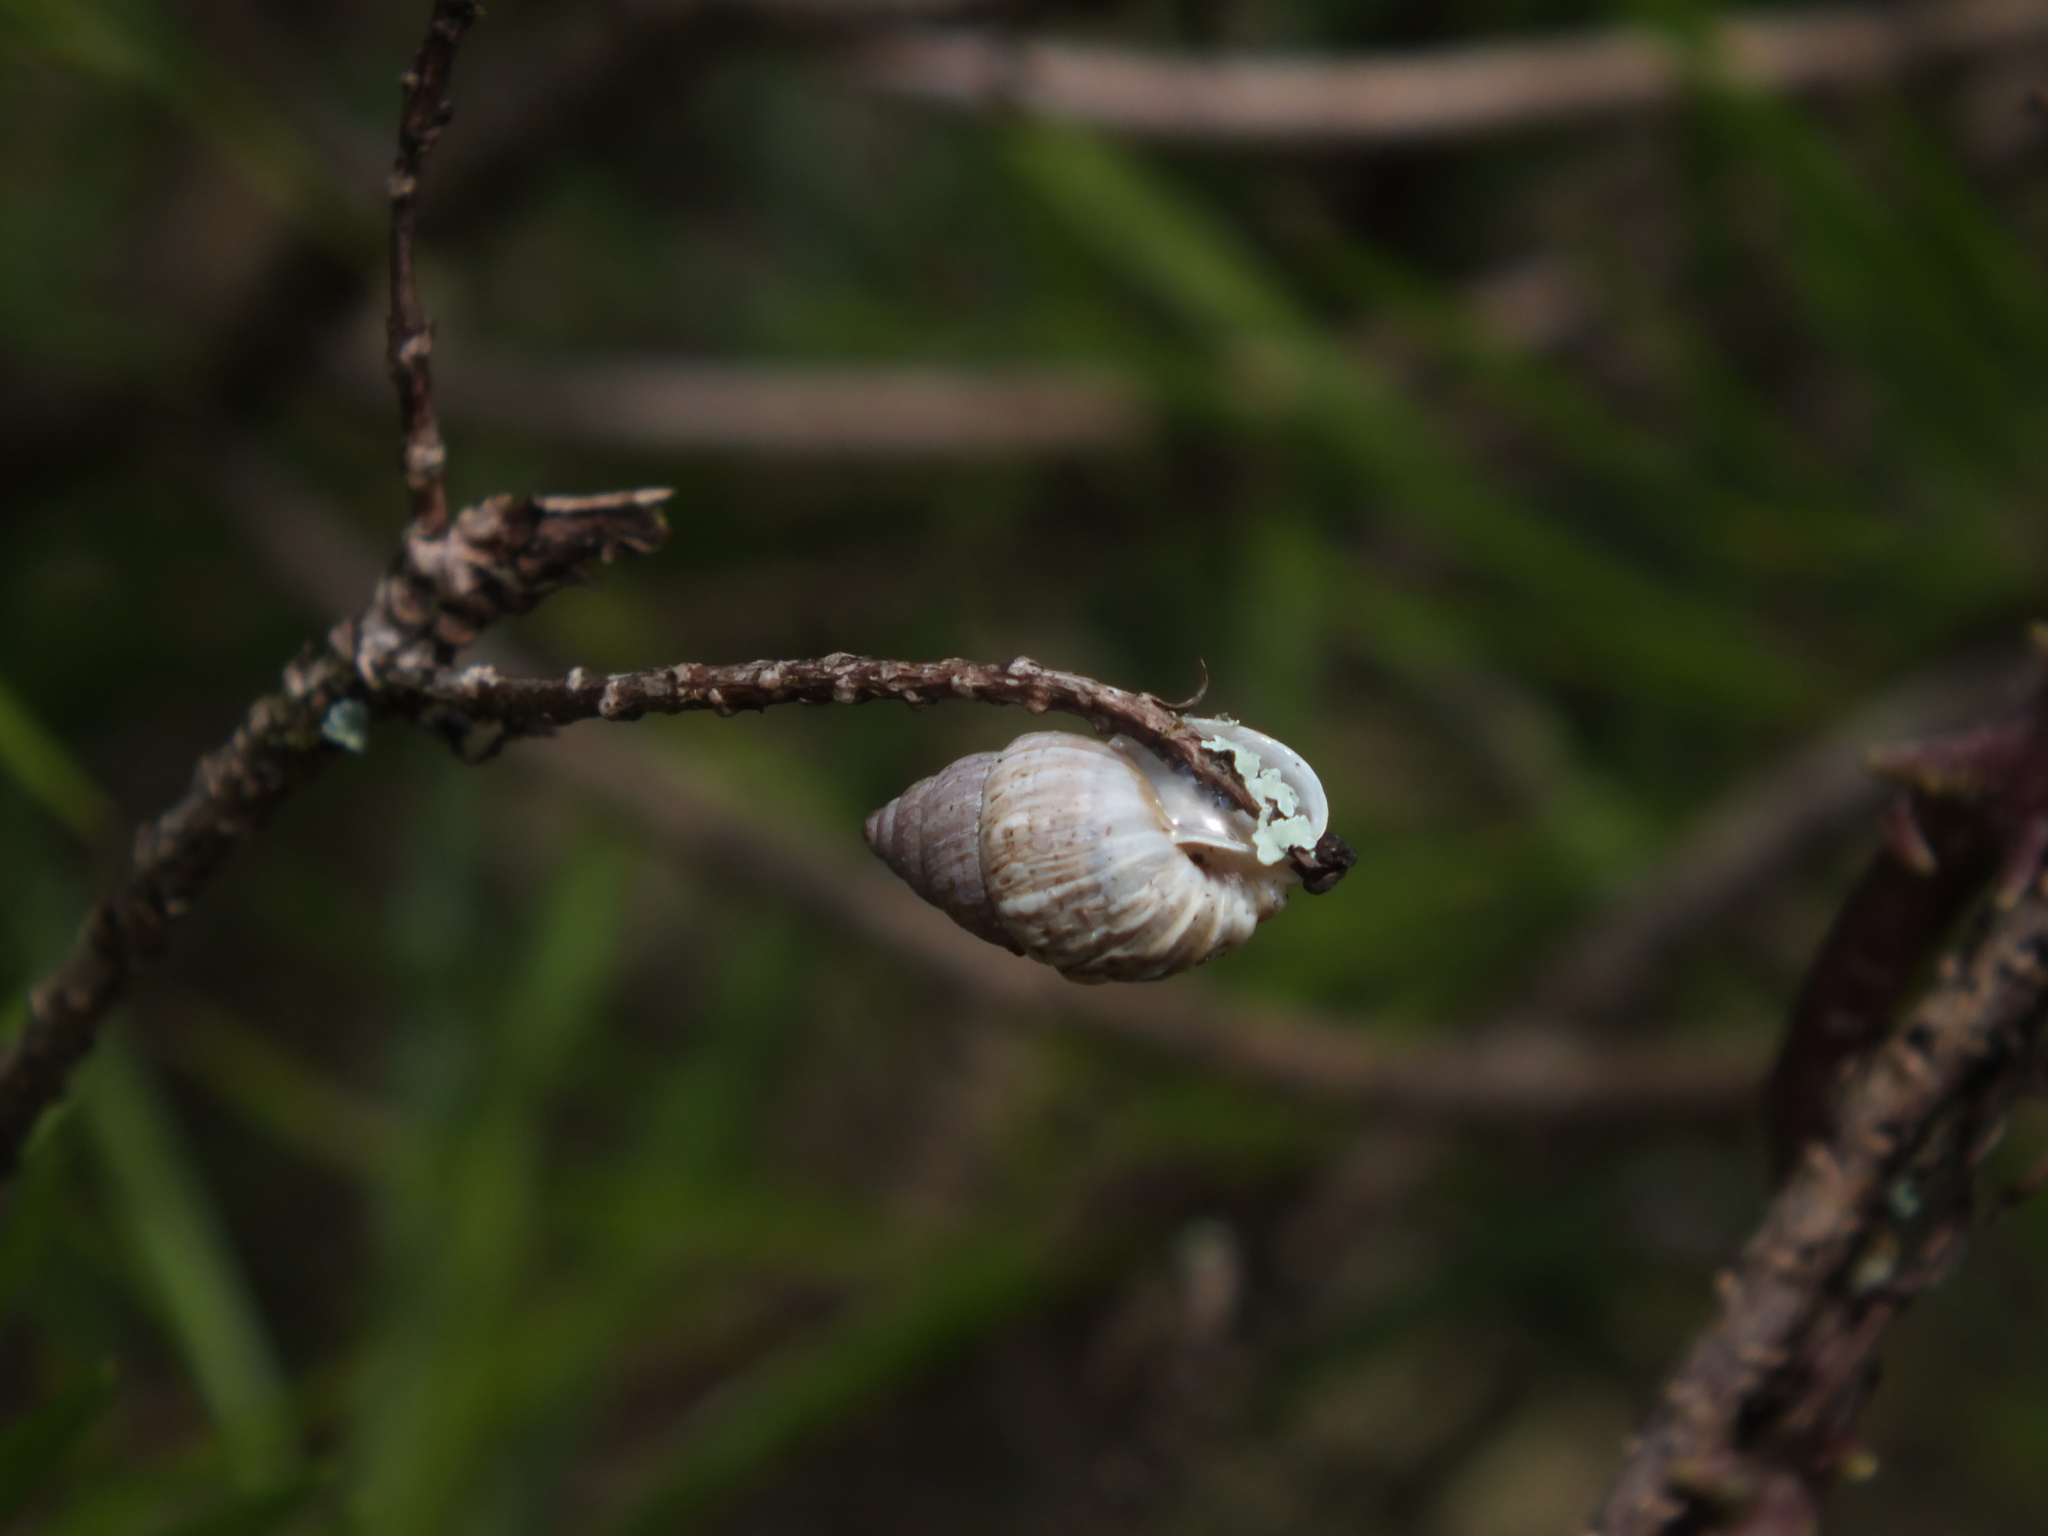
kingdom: Animalia
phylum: Mollusca
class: Gastropoda
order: Stylommatophora
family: Bulimulidae
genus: Naesiotus
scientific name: Naesiotus Bulimulus tortuganus
